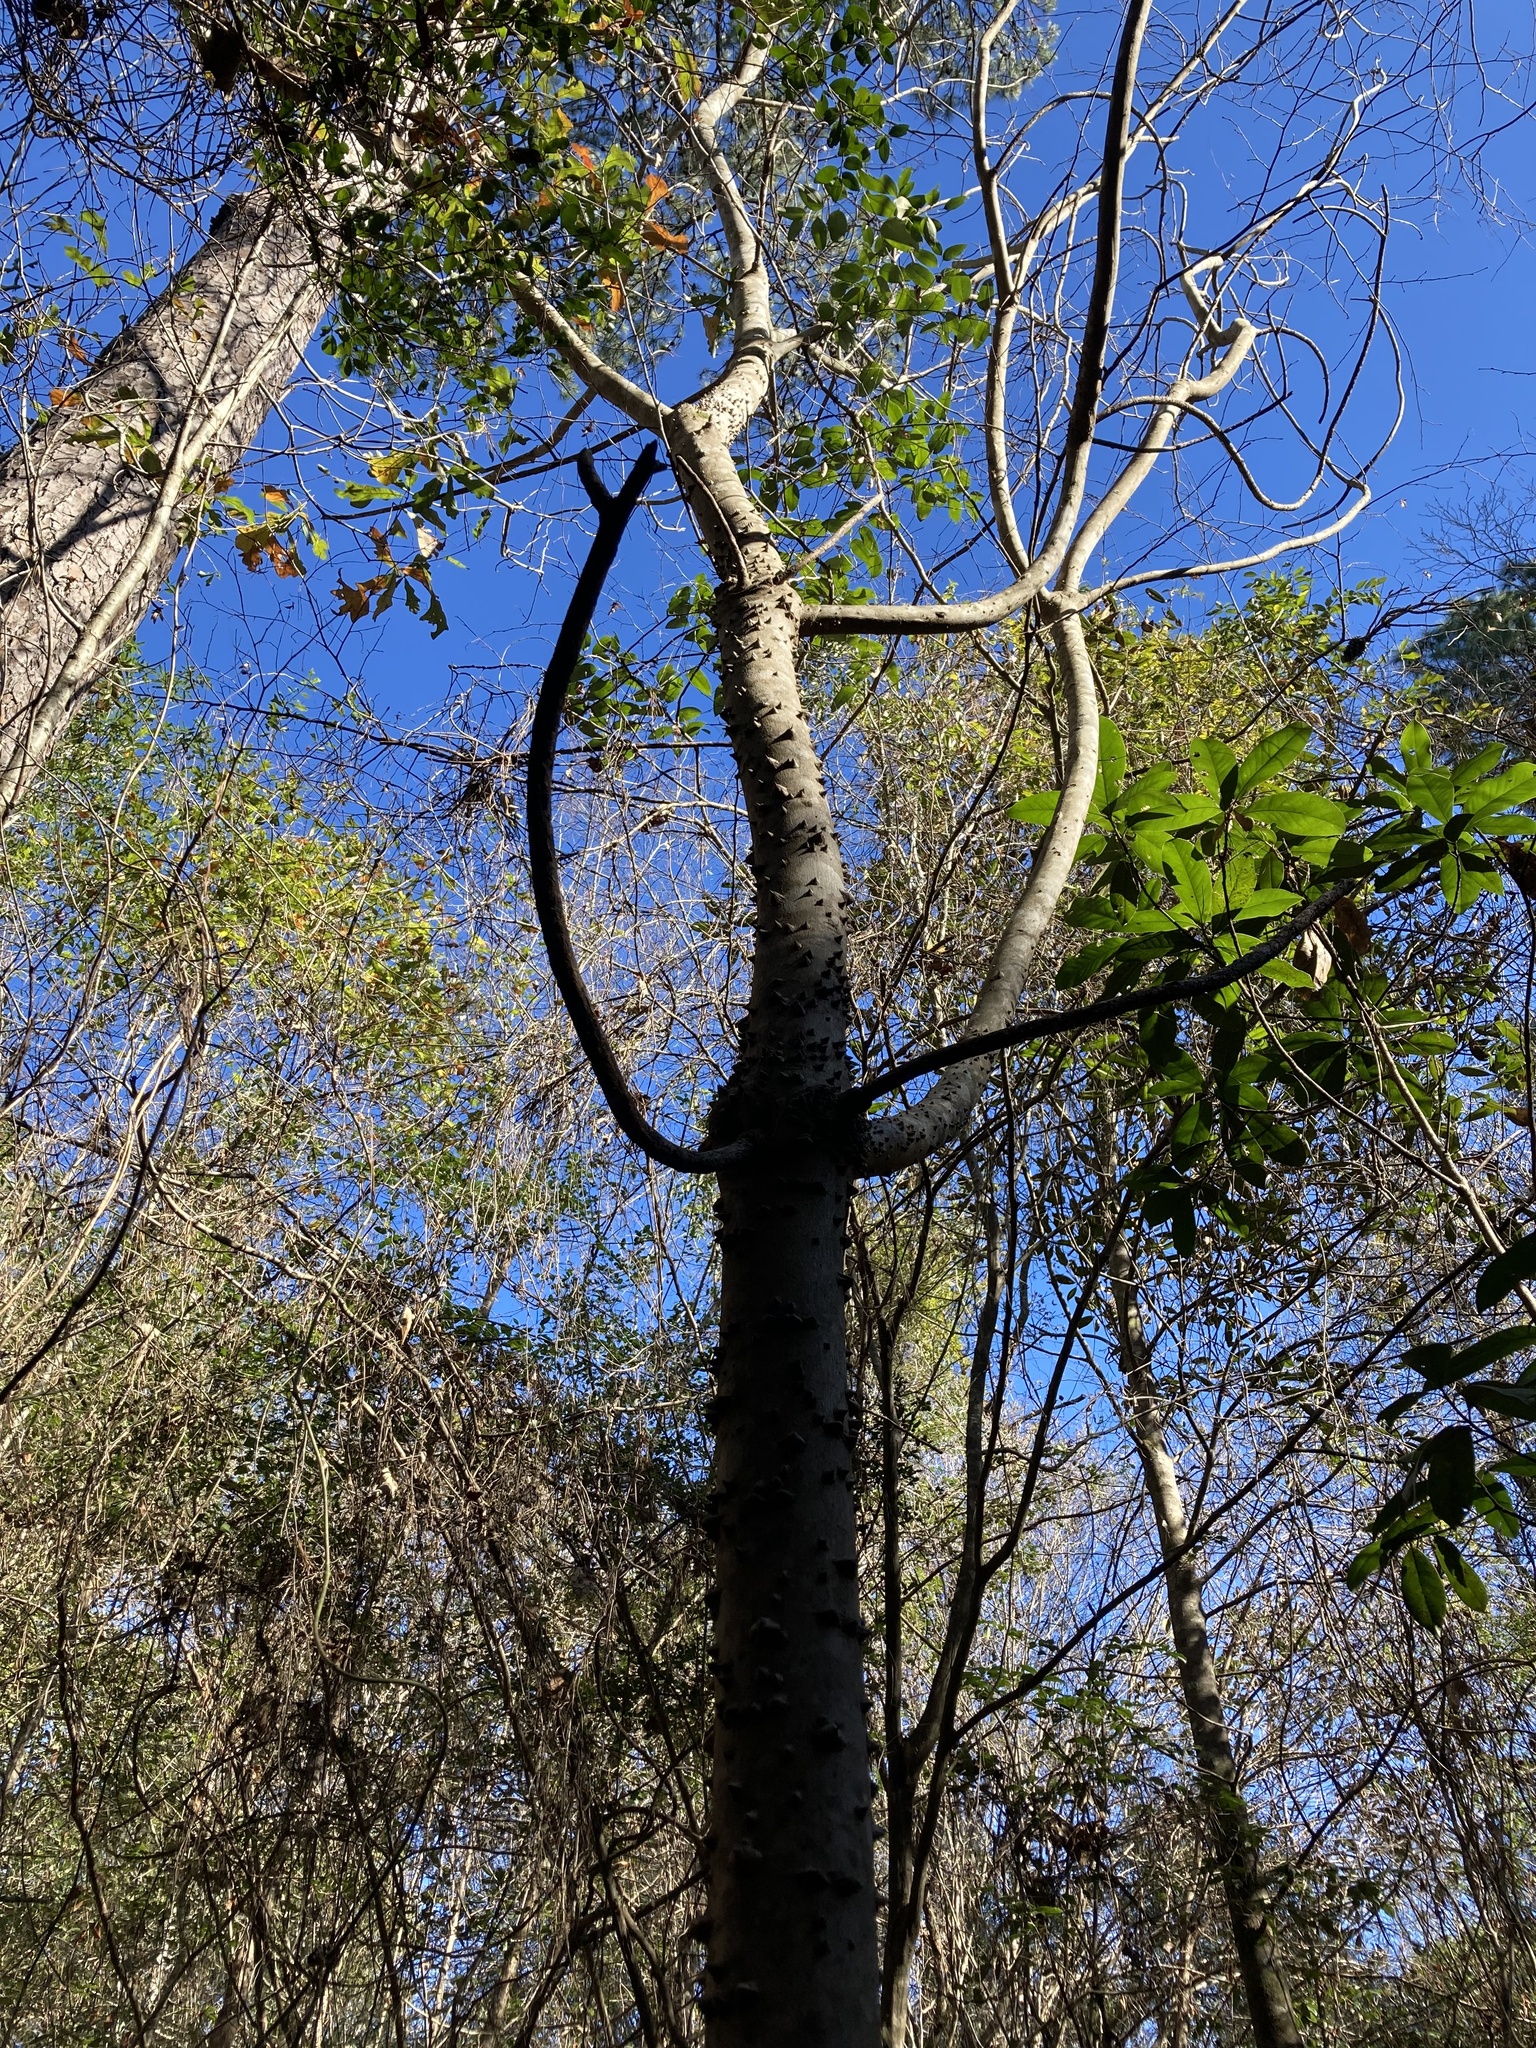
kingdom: Plantae
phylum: Tracheophyta
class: Magnoliopsida
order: Sapindales
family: Rutaceae
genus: Zanthoxylum
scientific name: Zanthoxylum clava-herculis
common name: Hercules'-club
